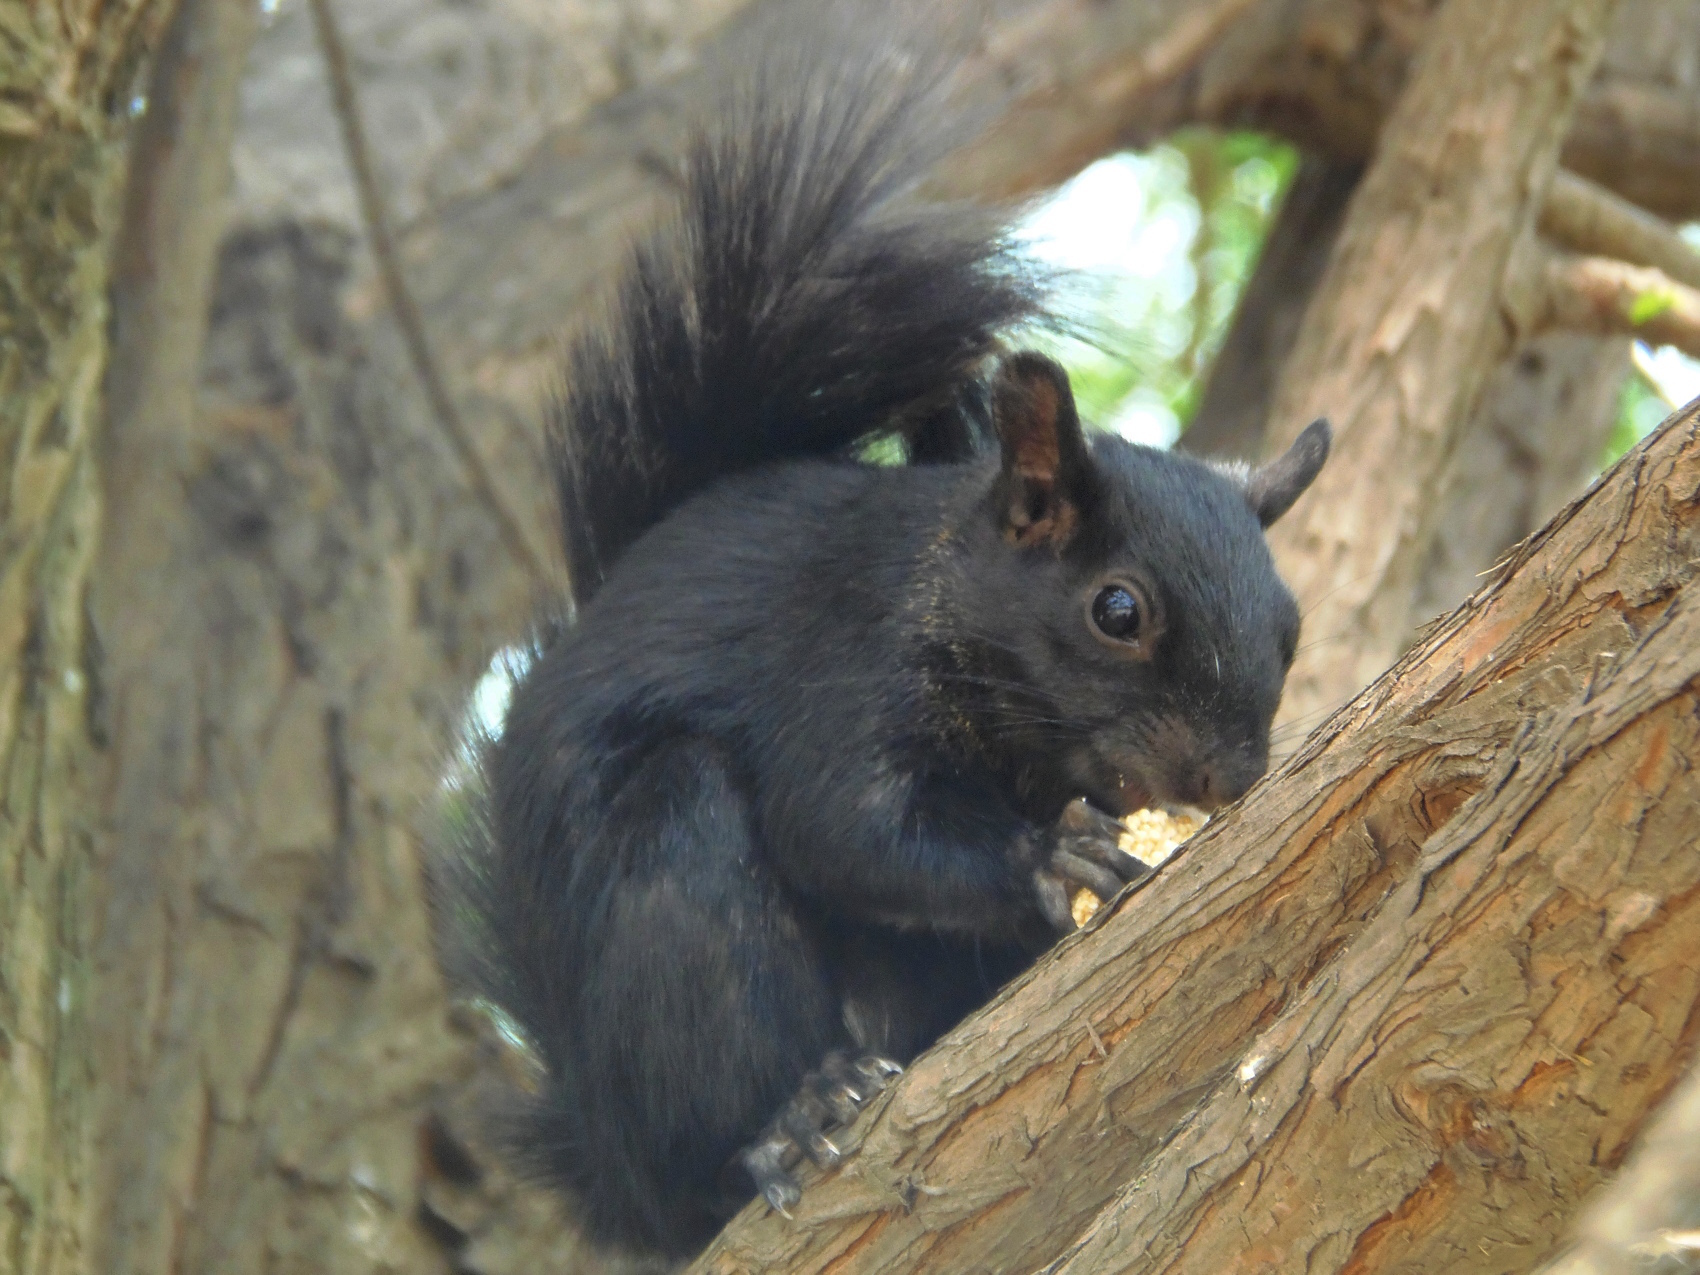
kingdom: Animalia
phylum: Chordata
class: Mammalia
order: Rodentia
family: Sciuridae
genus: Sciurus
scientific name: Sciurus aureogaster
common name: Red-bellied squirrel
